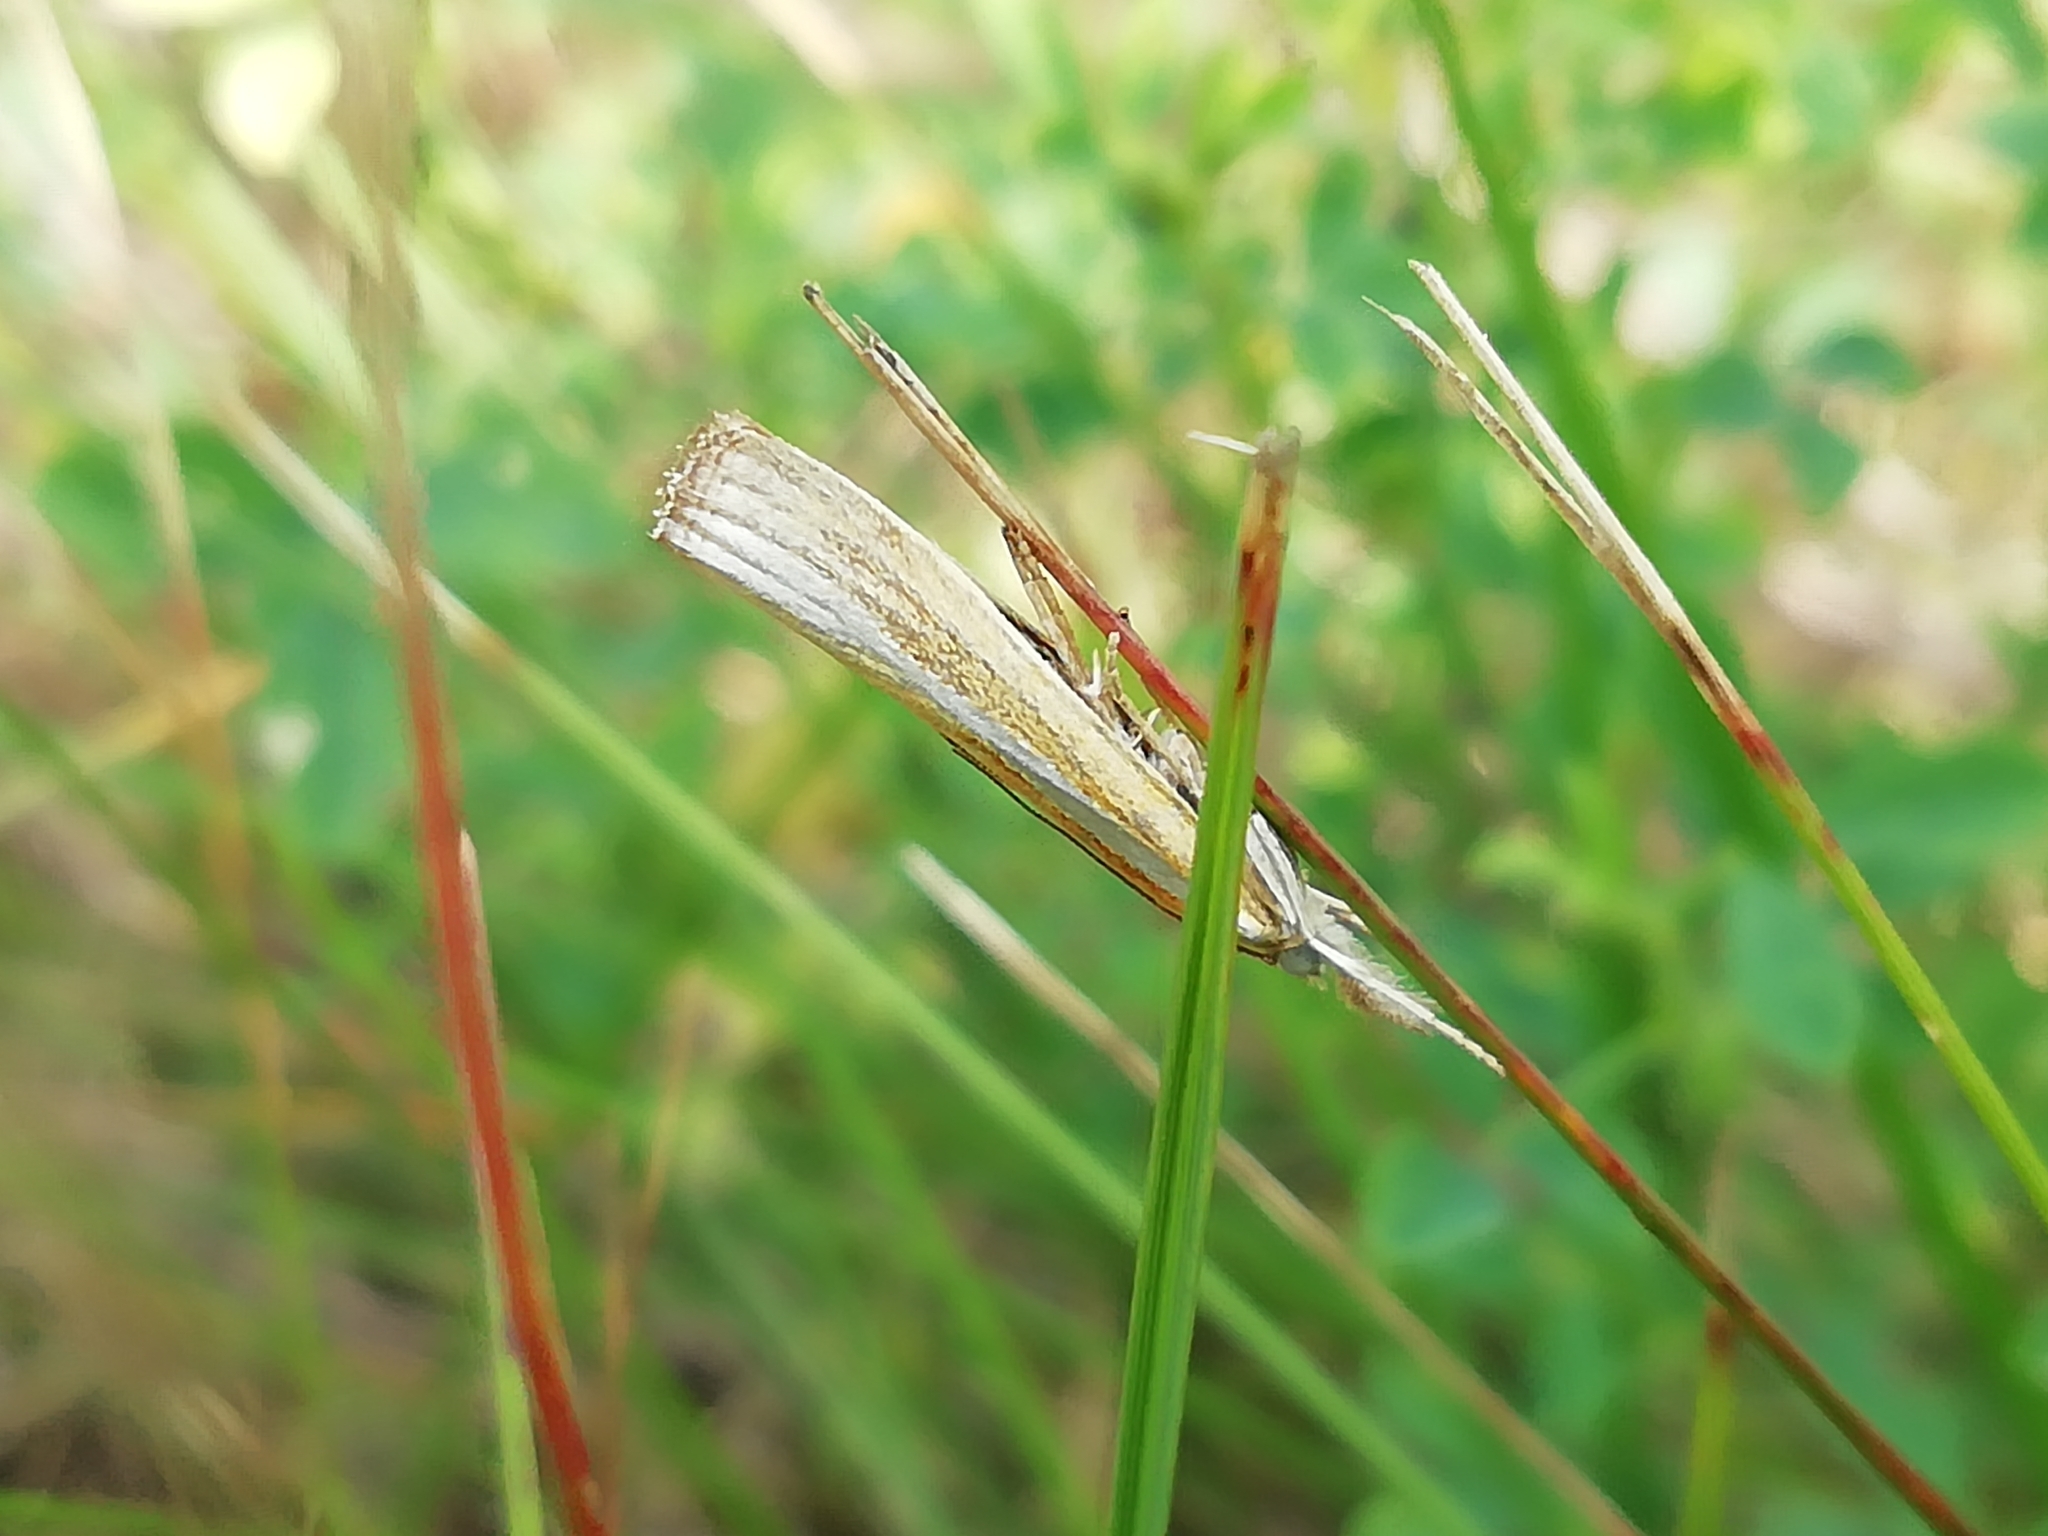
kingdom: Animalia
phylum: Arthropoda
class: Insecta
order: Lepidoptera
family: Crambidae
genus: Agriphila
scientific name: Agriphila tristellus
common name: Common grass-veneer
